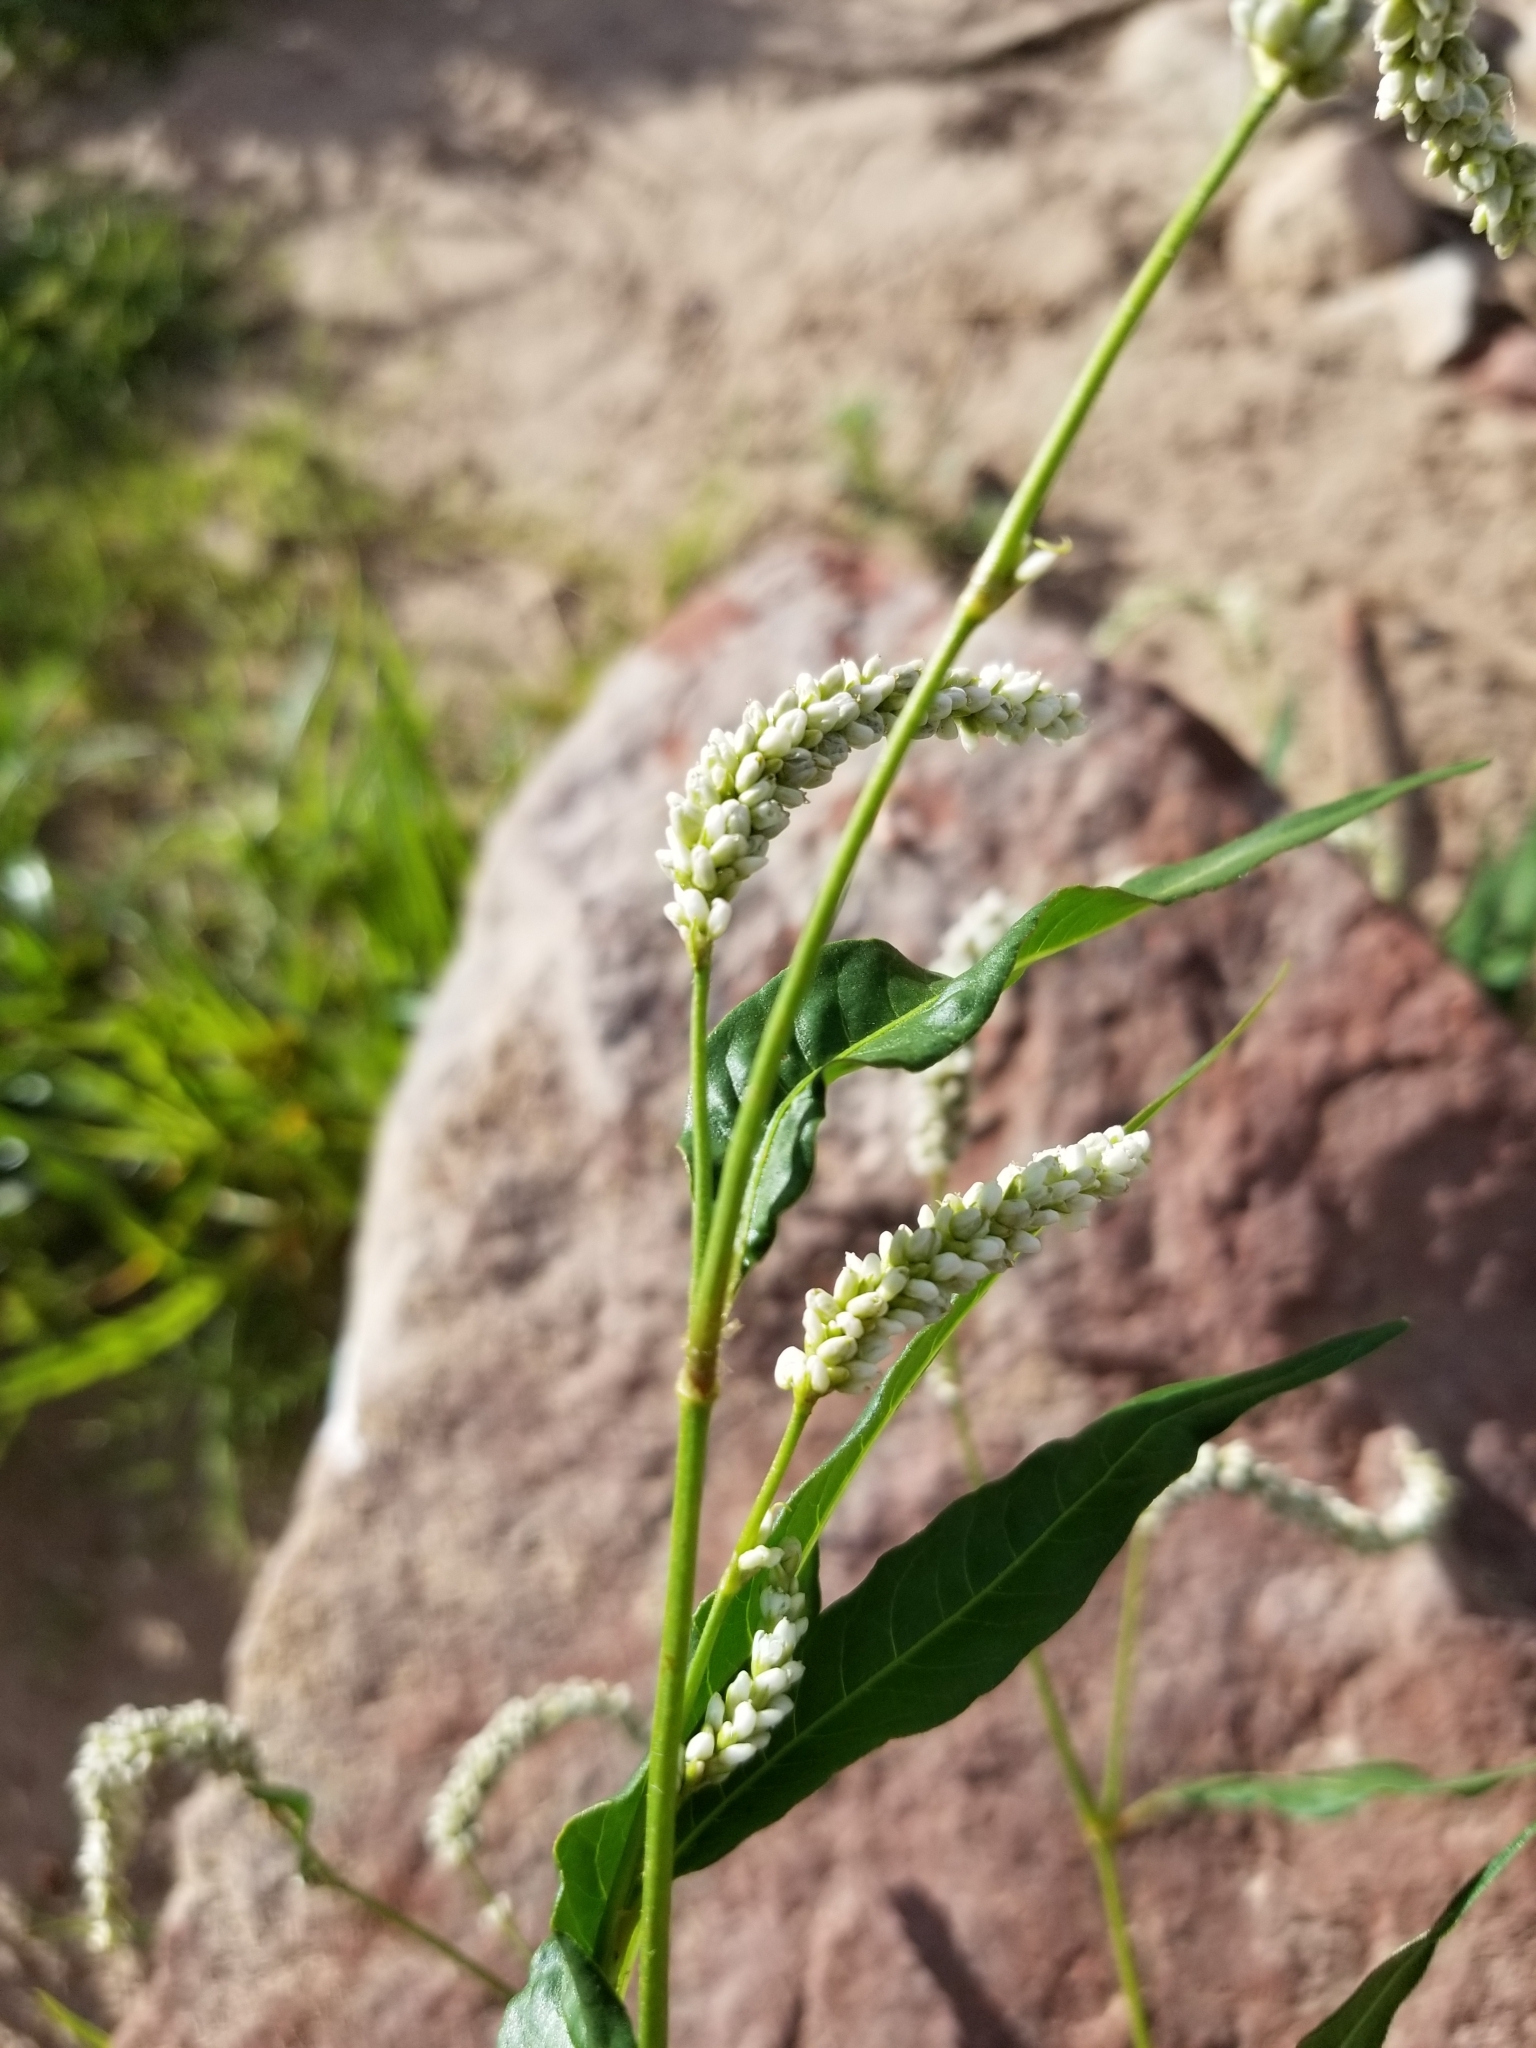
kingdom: Plantae
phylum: Tracheophyta
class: Magnoliopsida
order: Caryophyllales
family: Polygonaceae
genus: Persicaria
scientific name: Persicaria lapathifolia
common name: Curlytop knotweed
